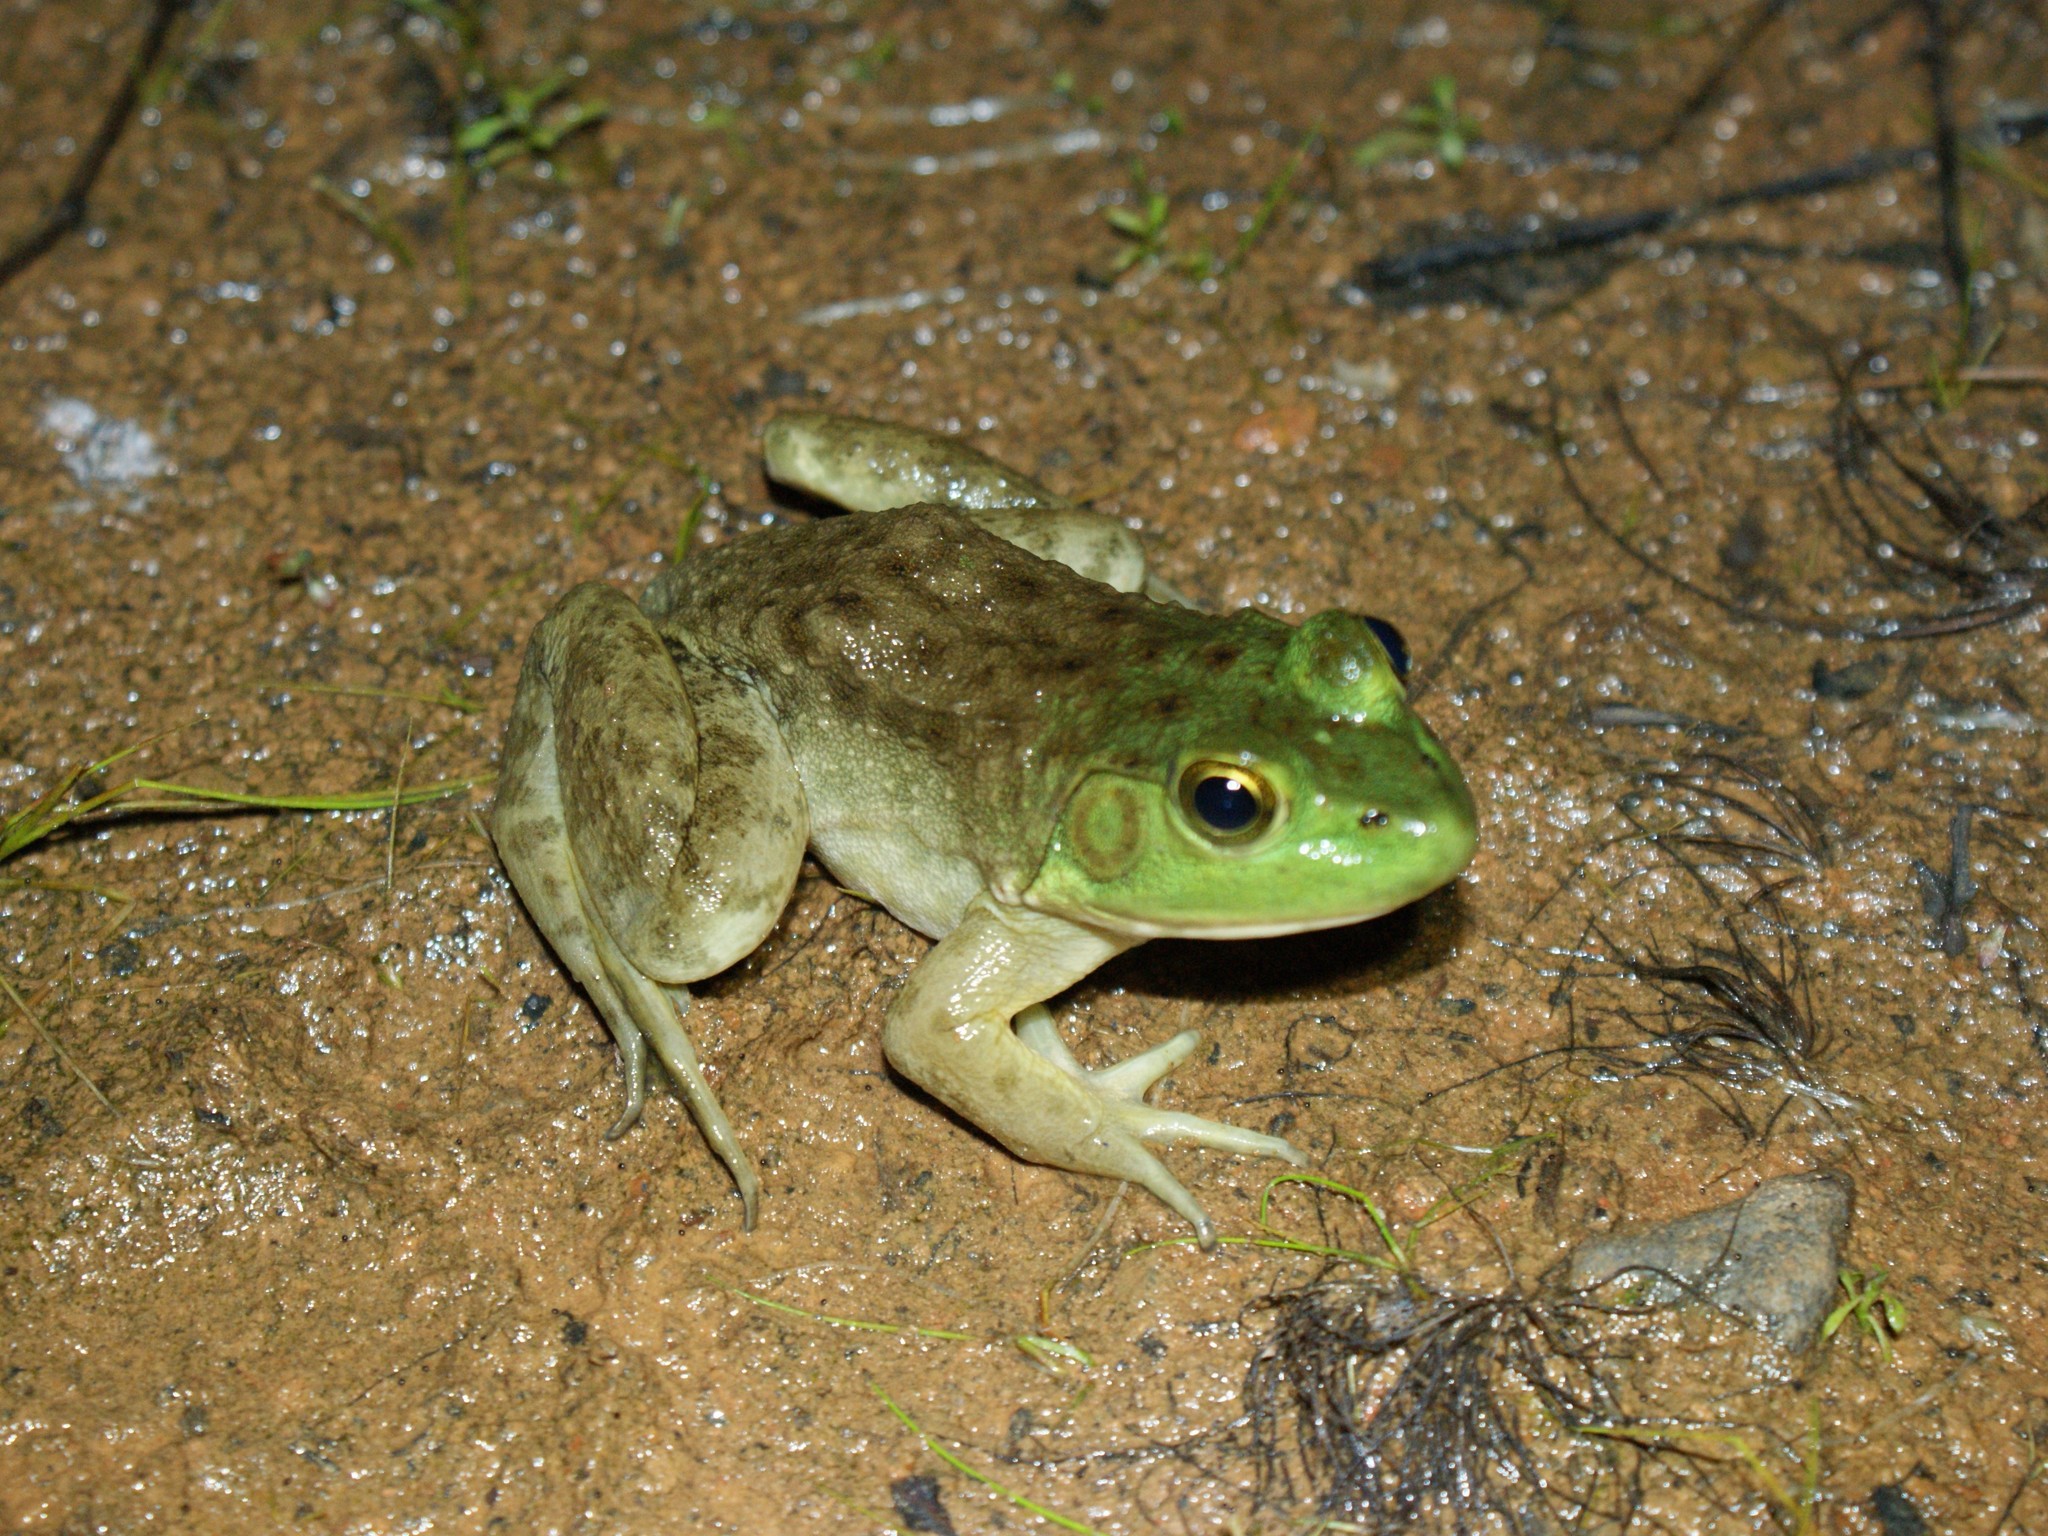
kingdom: Animalia
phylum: Chordata
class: Amphibia
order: Anura
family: Ranidae
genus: Lithobates
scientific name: Lithobates catesbeianus
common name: American bullfrog
